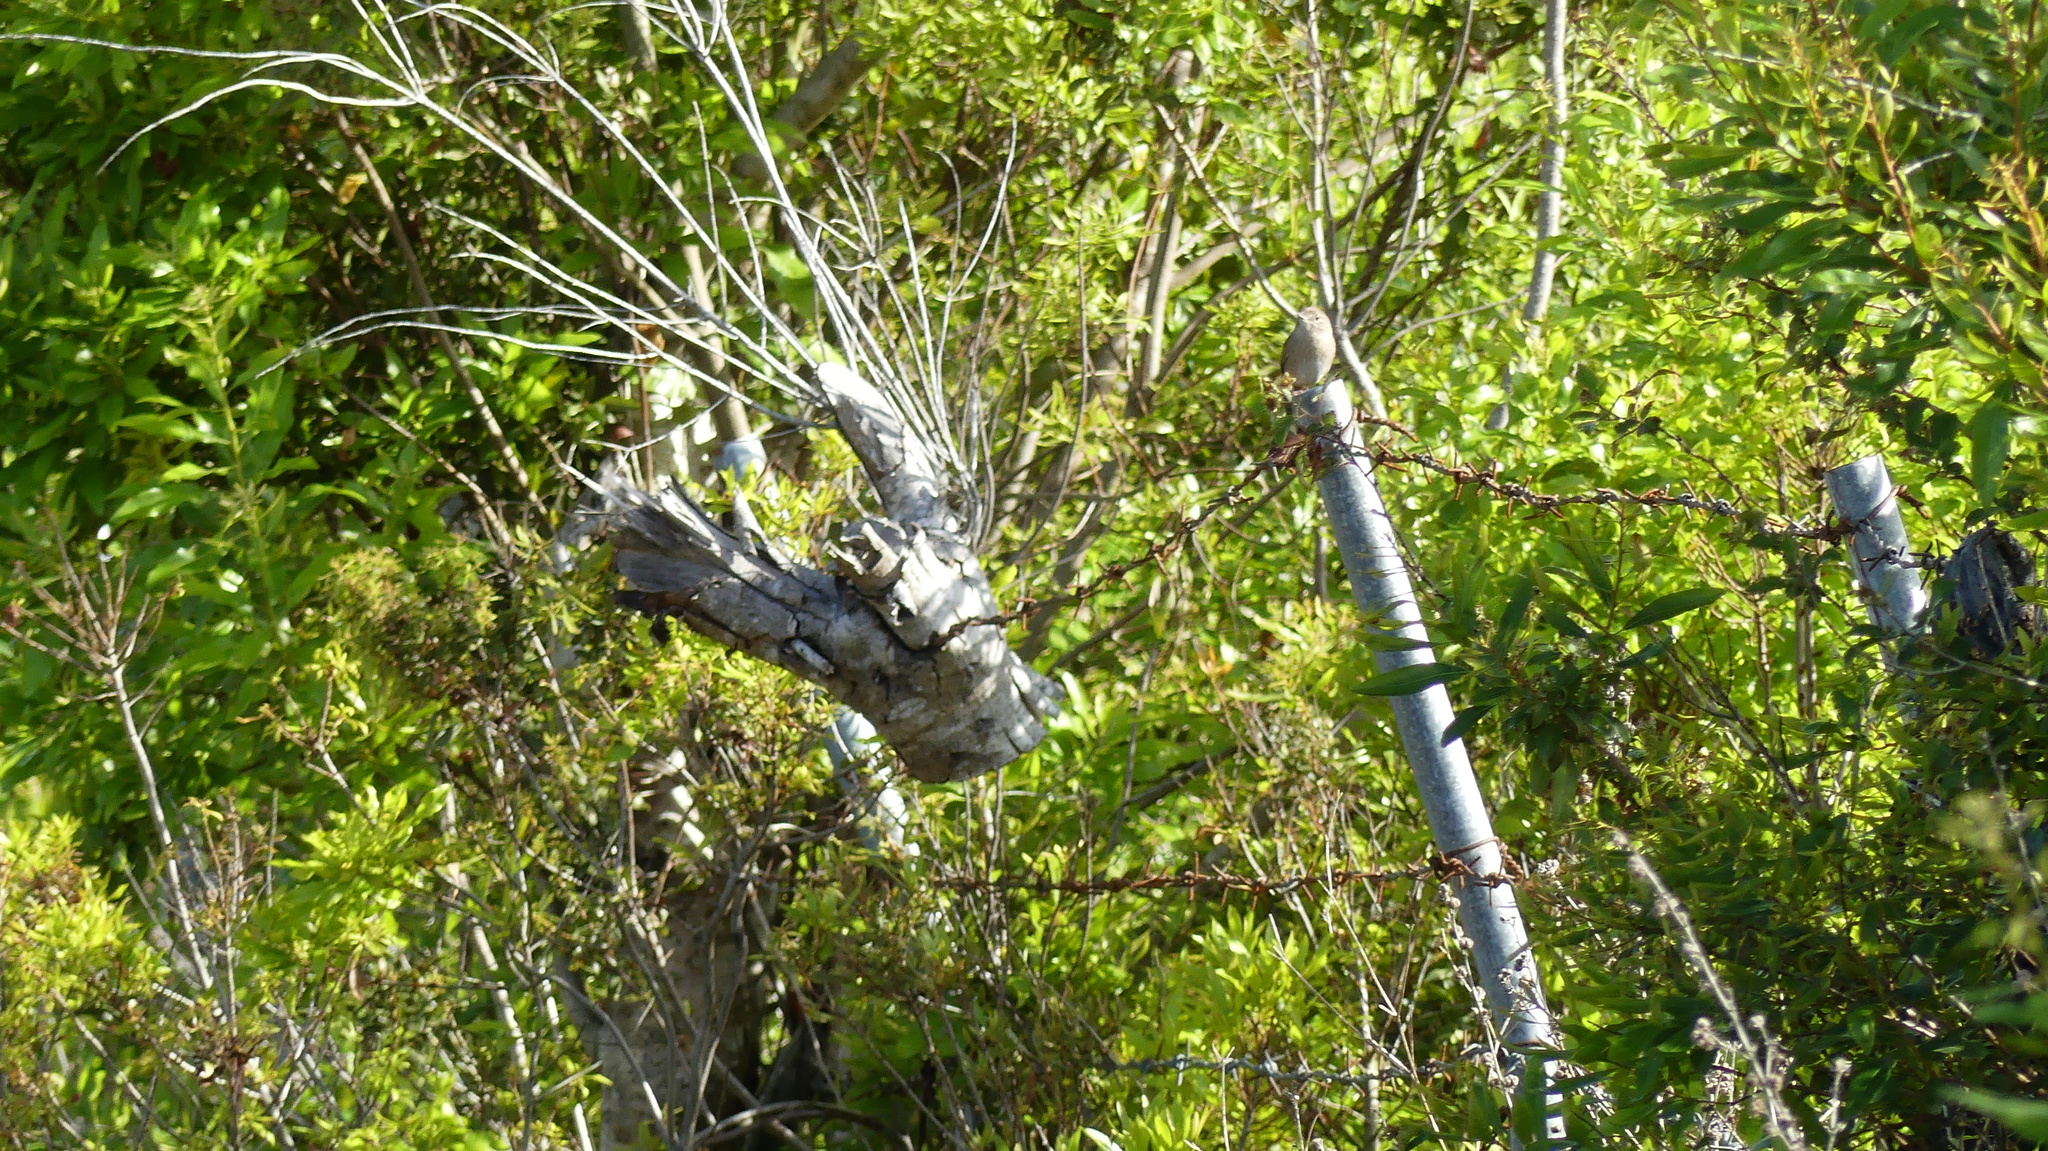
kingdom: Animalia
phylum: Chordata
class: Aves
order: Passeriformes
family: Troglodytidae
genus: Troglodytes
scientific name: Troglodytes aedon
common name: House wren
